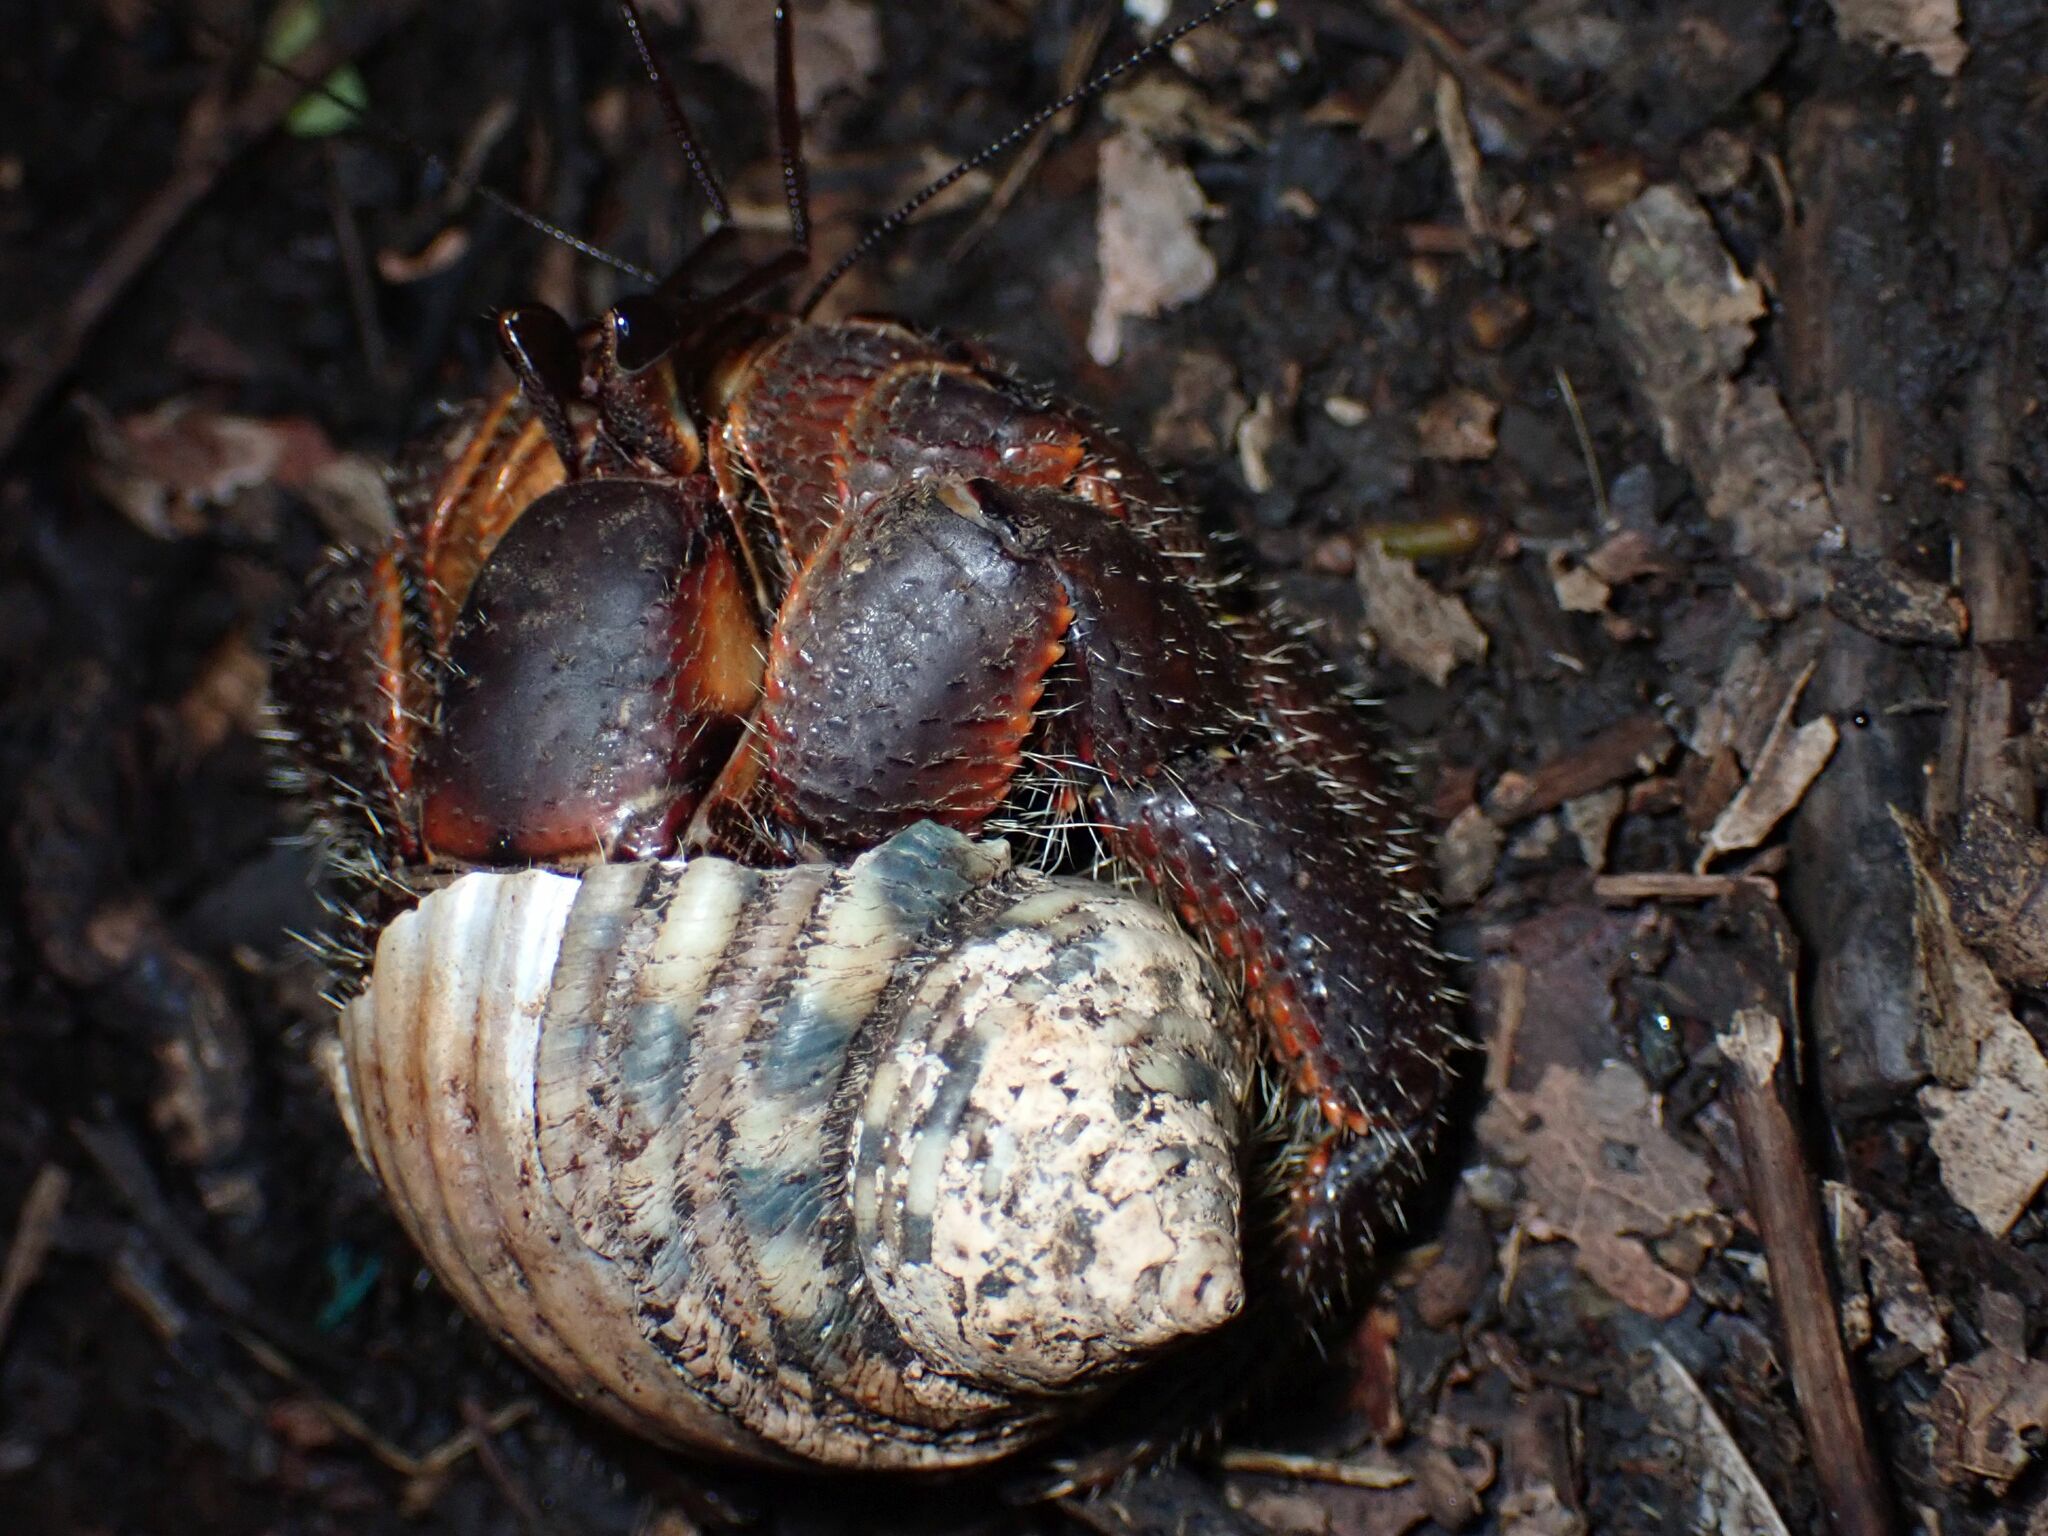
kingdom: Animalia
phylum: Arthropoda
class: Malacostraca
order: Decapoda
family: Coenobitidae
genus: Coenobita
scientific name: Coenobita spinosus
